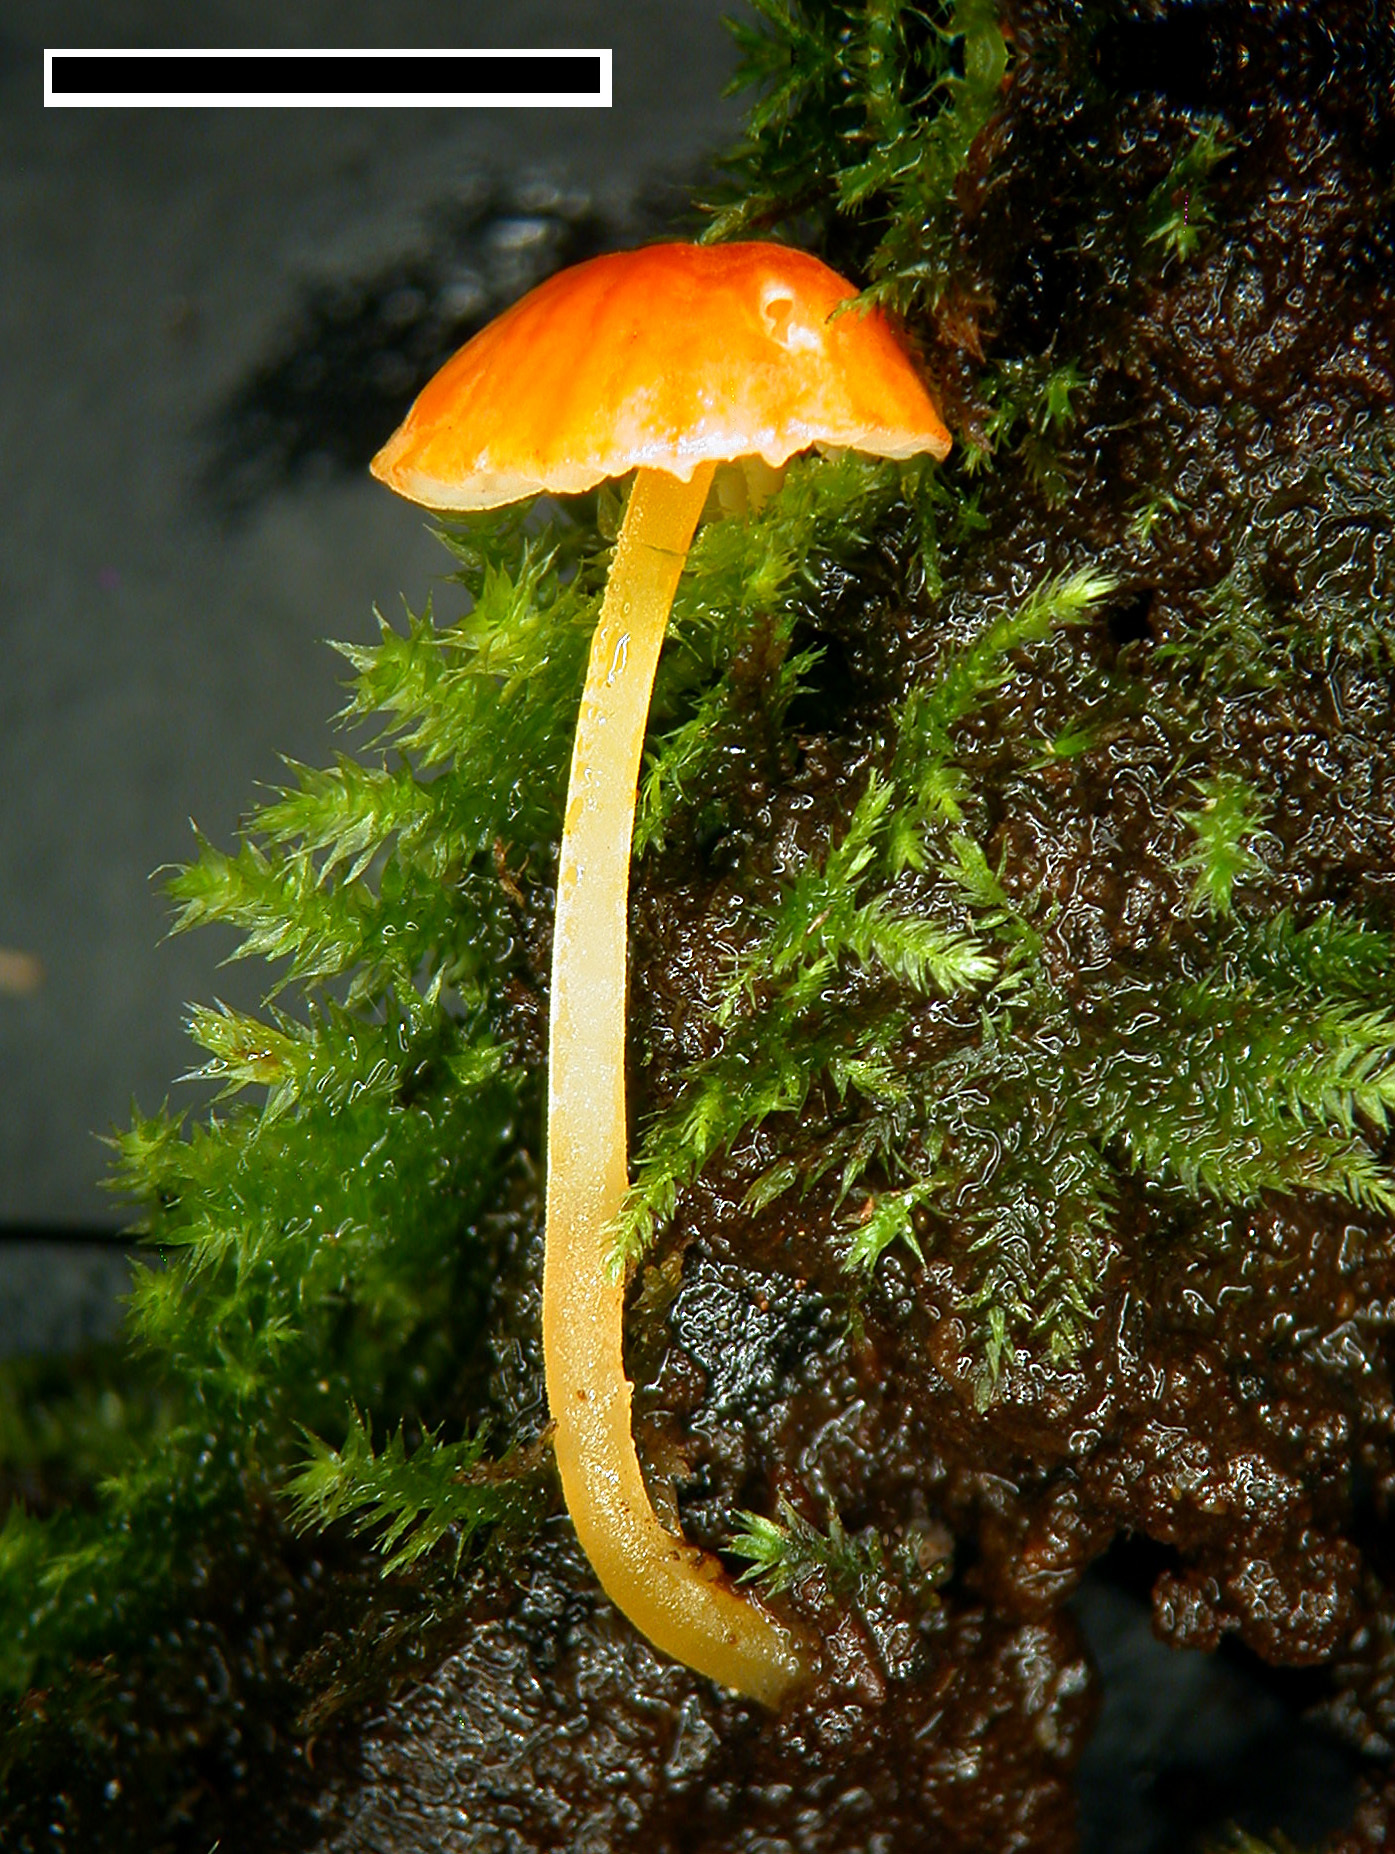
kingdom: Fungi
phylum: Basidiomycota
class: Agaricomycetes
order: Agaricales
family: Mycenaceae
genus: Mycena
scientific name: Mycena acicula
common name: Orange bonnet
